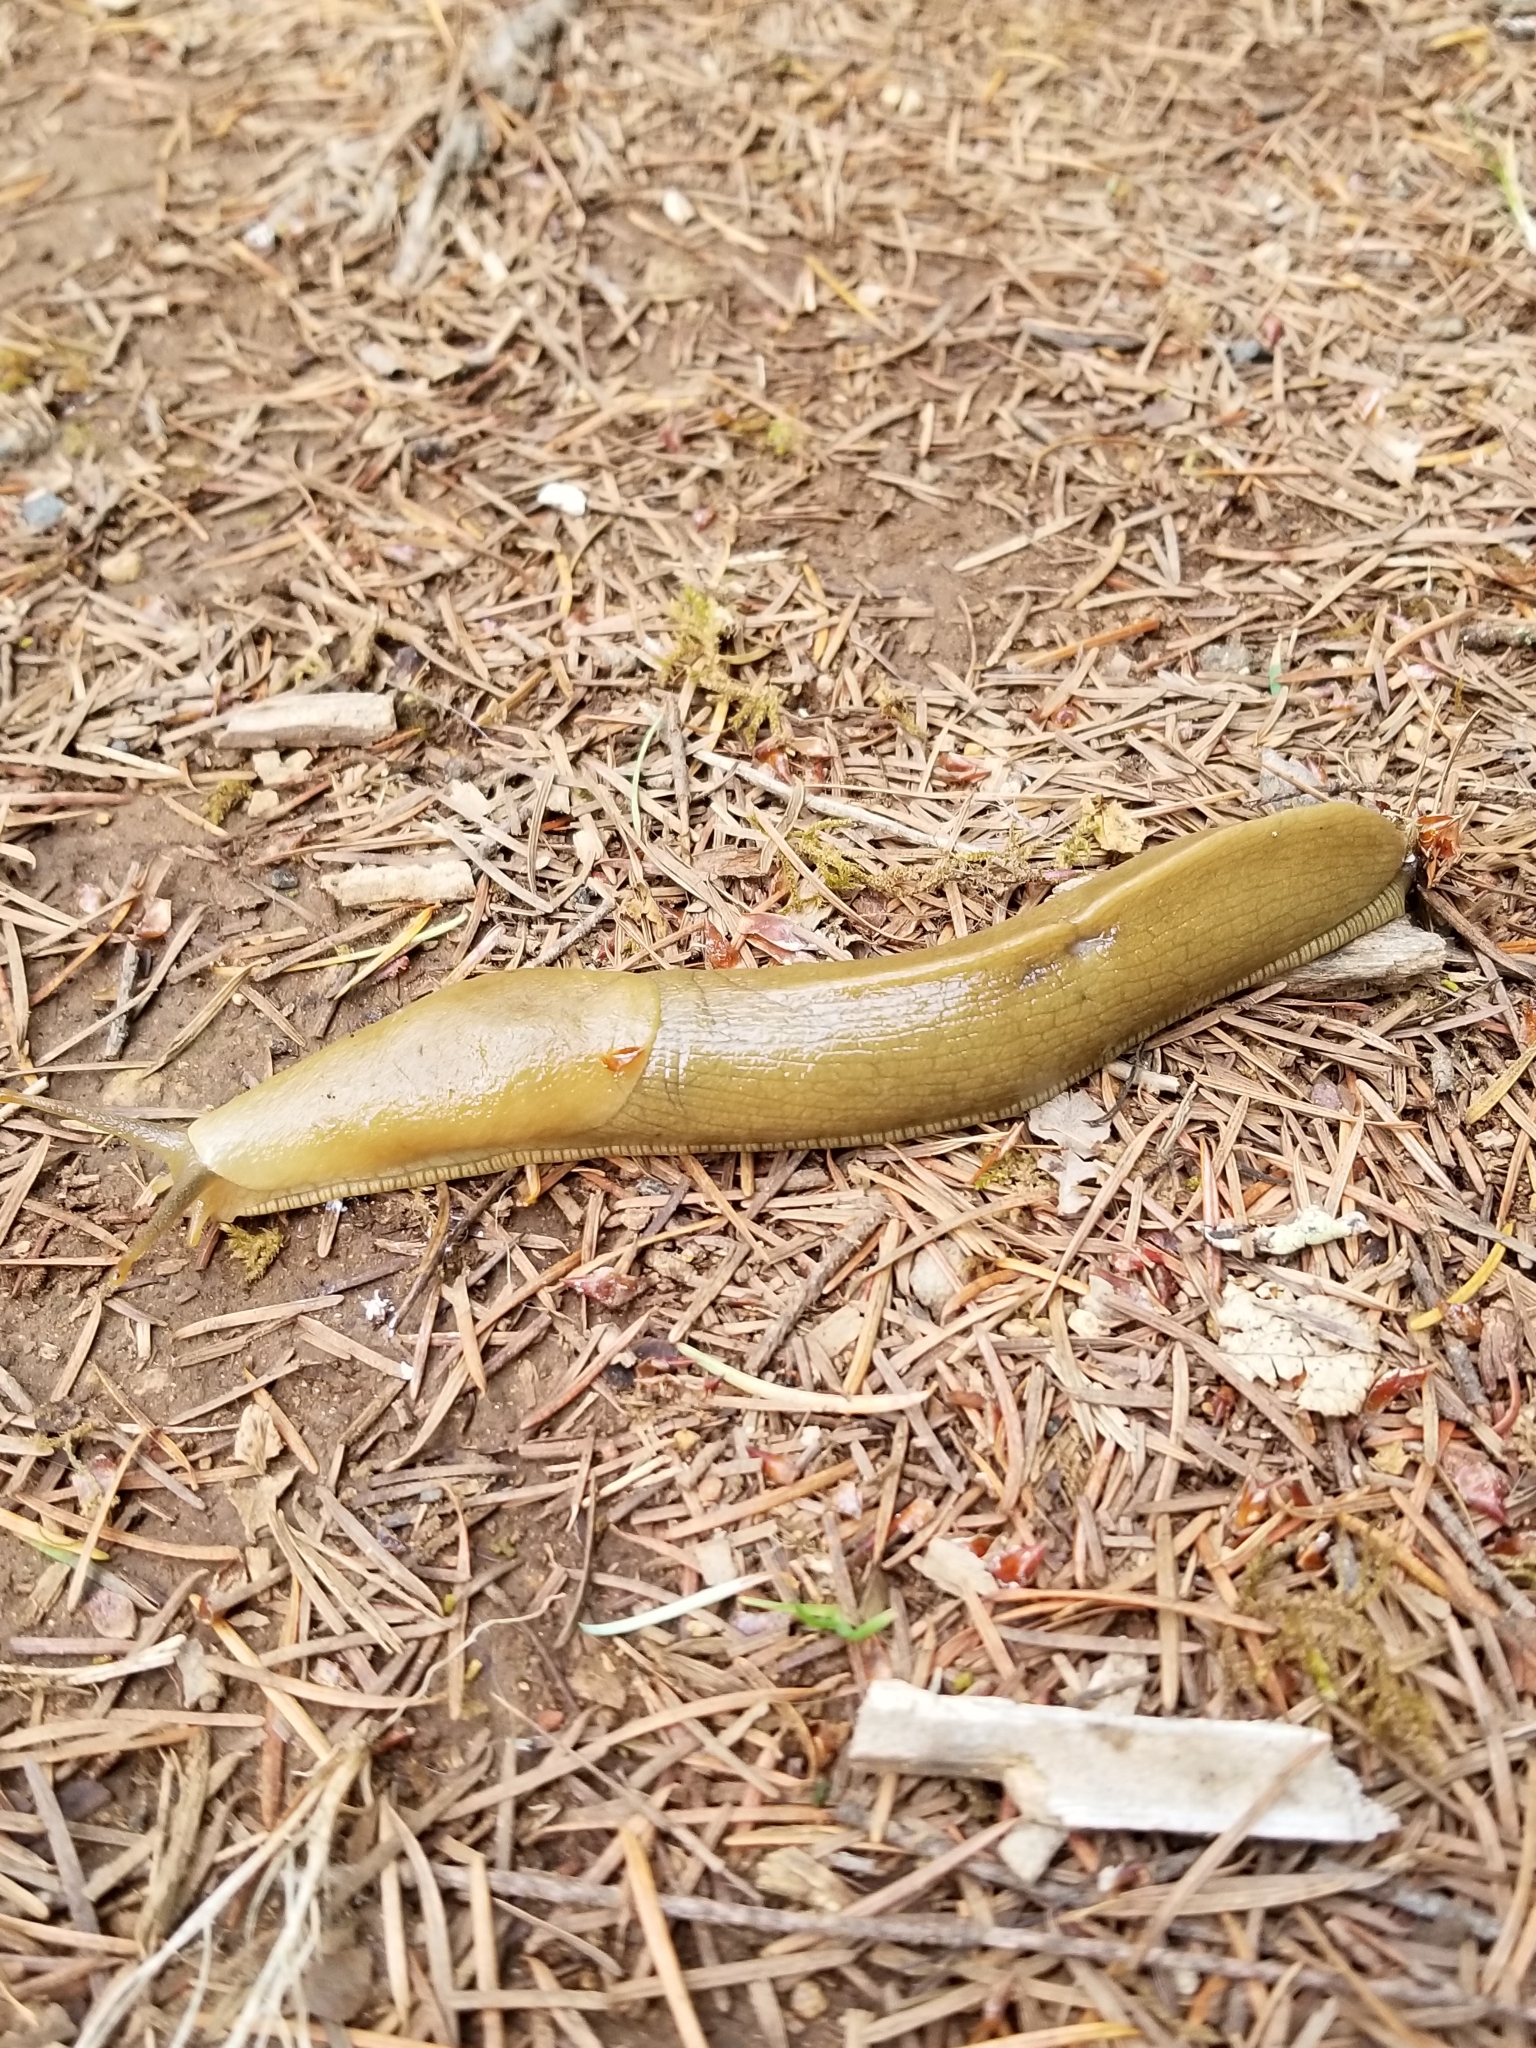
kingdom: Animalia
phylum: Mollusca
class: Gastropoda
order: Stylommatophora
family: Ariolimacidae
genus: Ariolimax
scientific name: Ariolimax columbianus
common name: Pacific banana slug
